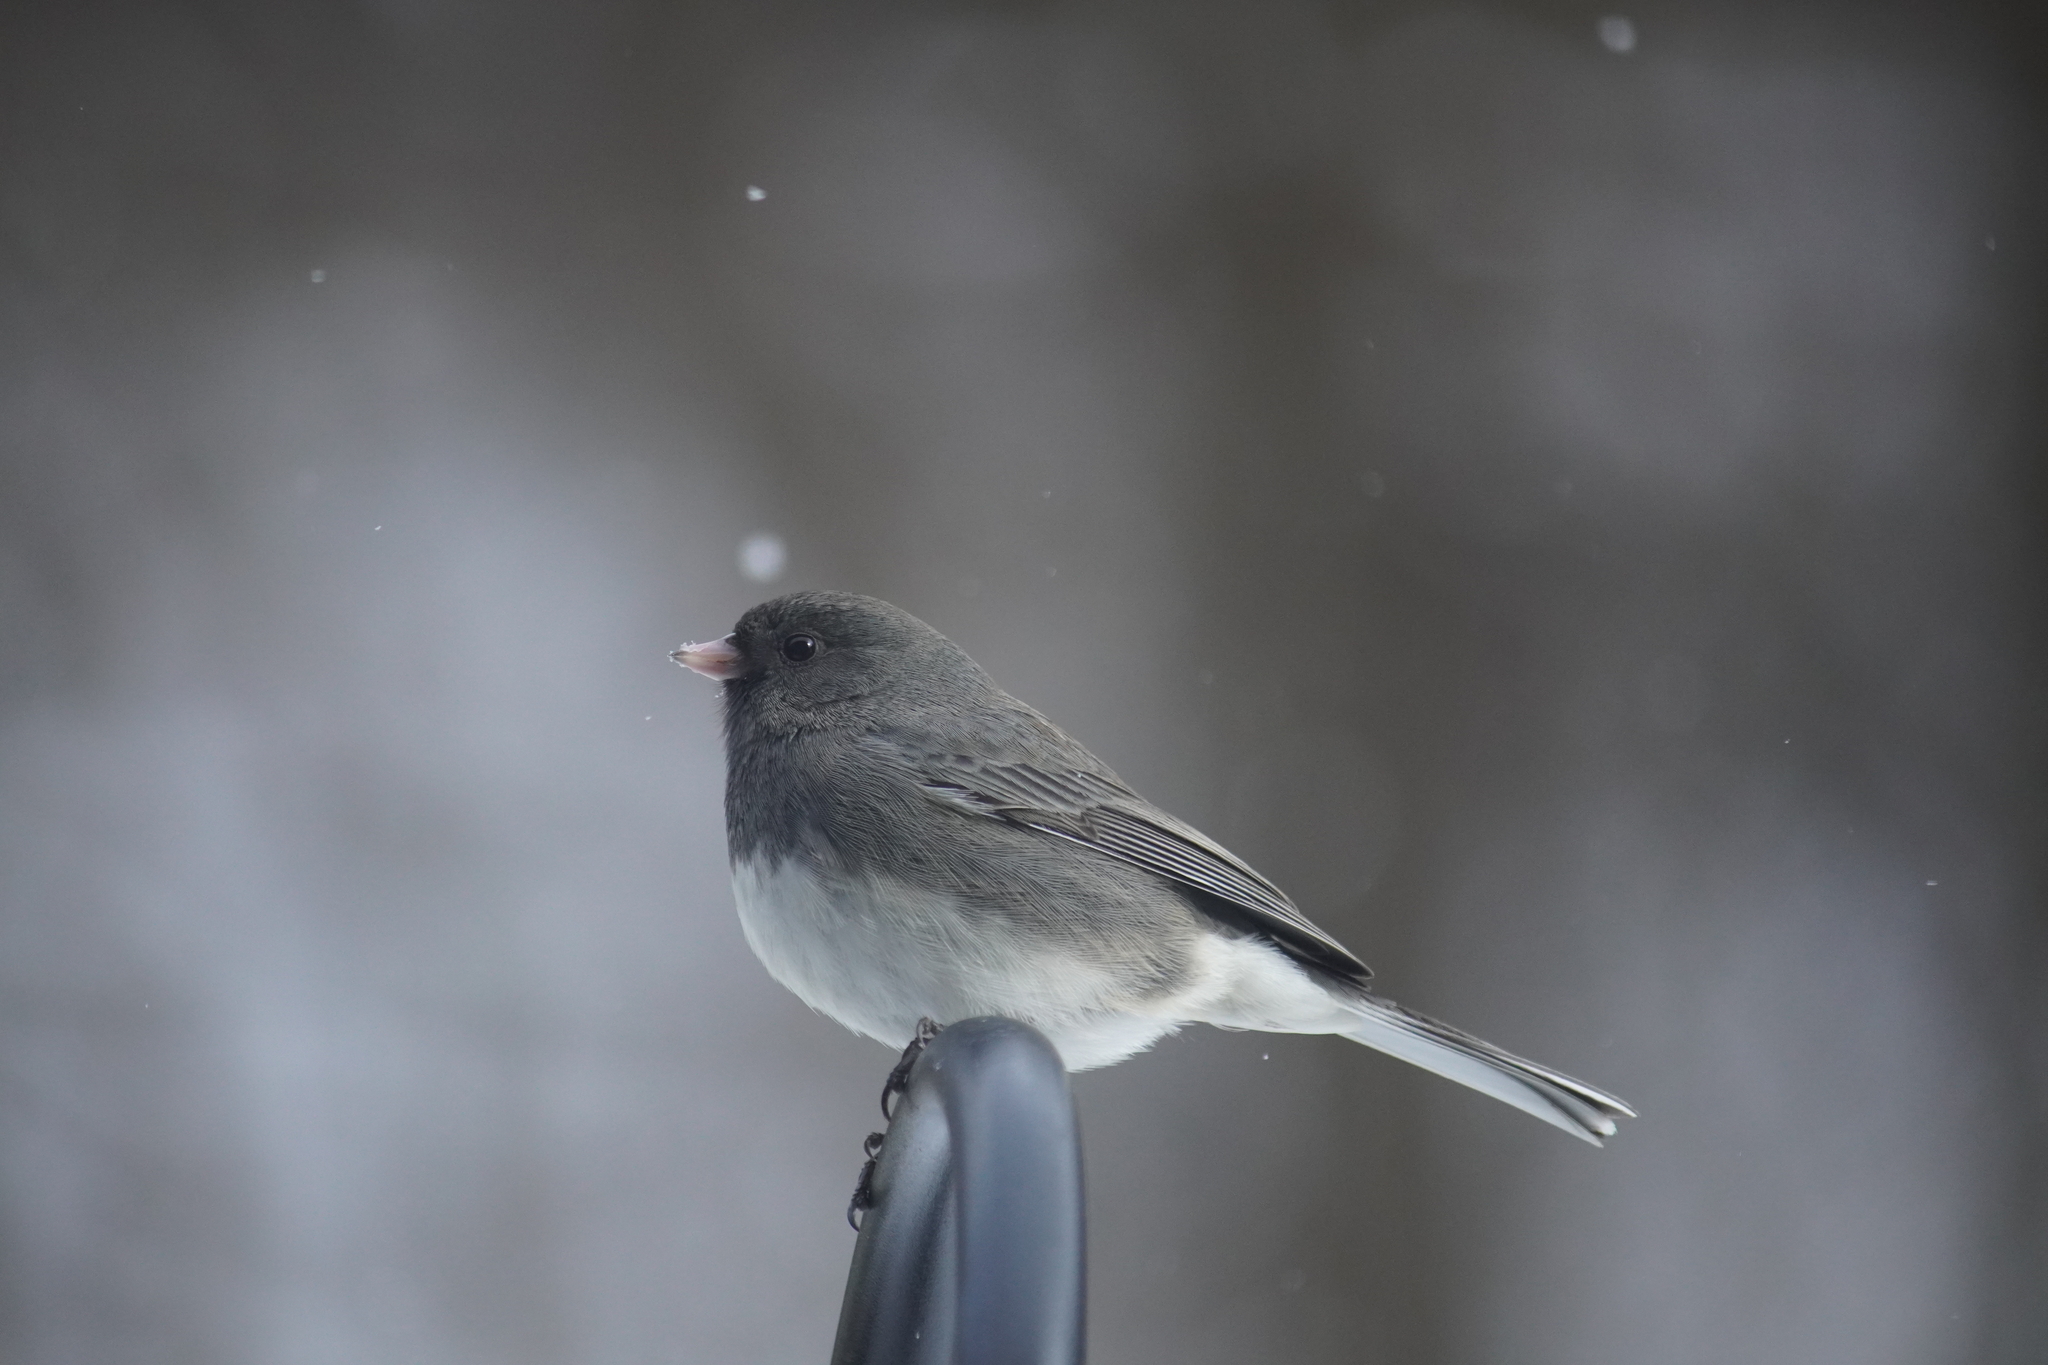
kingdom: Animalia
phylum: Chordata
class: Aves
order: Passeriformes
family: Passerellidae
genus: Junco
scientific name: Junco hyemalis
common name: Dark-eyed junco
